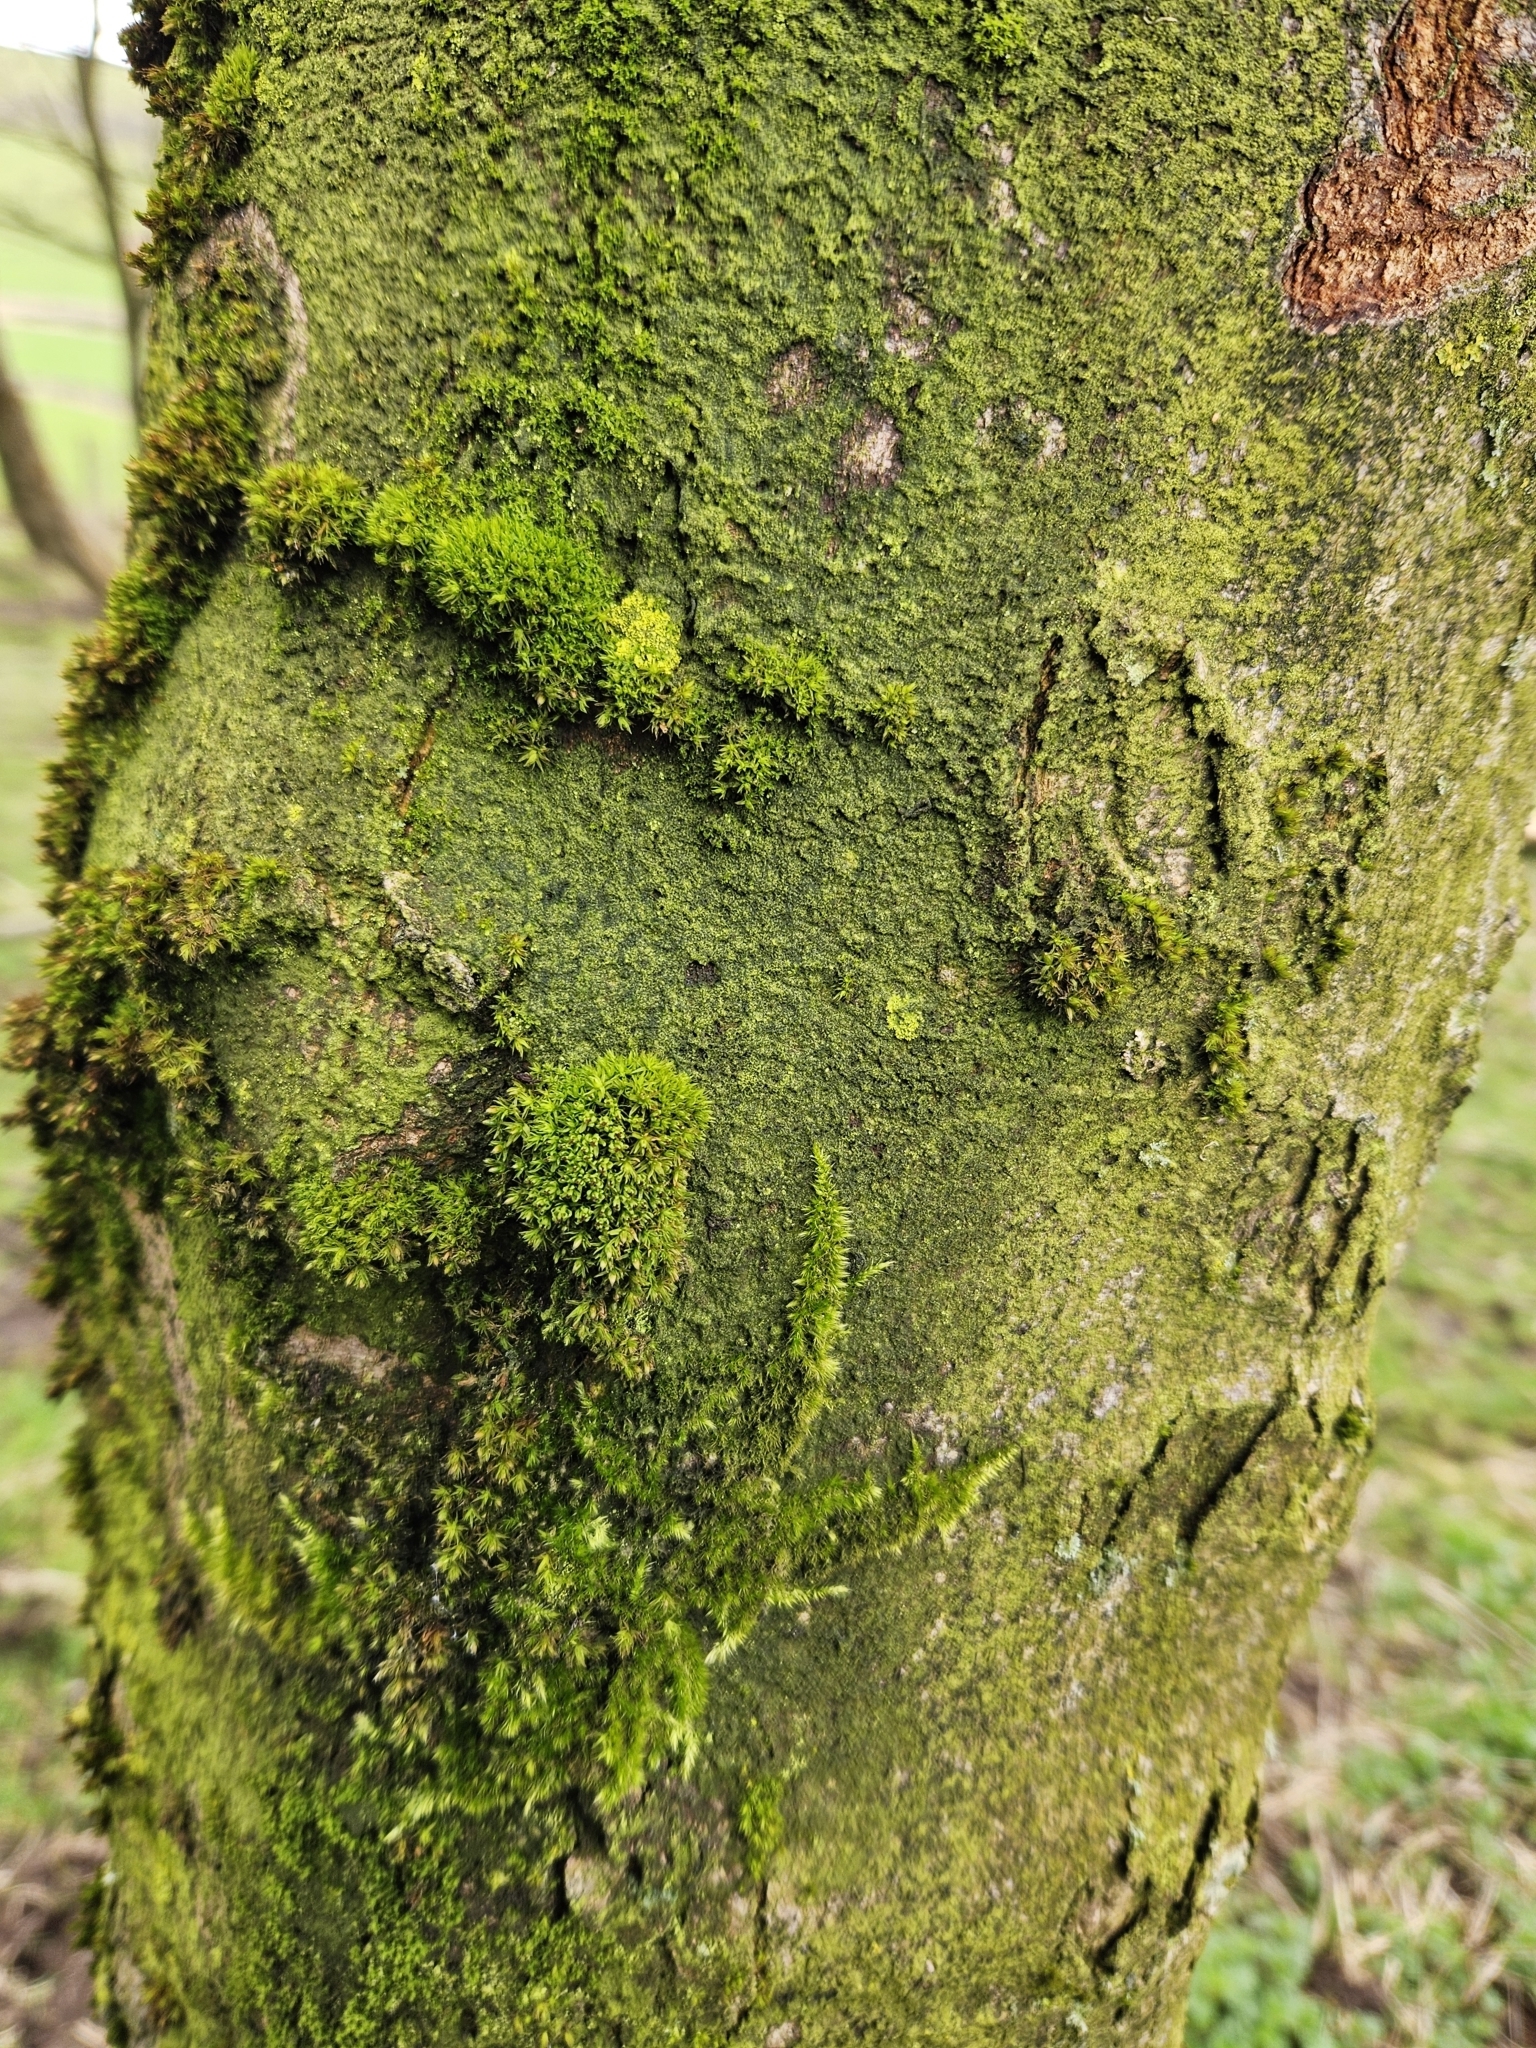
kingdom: Plantae
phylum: Bryophyta
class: Bryopsida
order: Orthotrichales
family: Orthotrichaceae
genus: Plenogemma
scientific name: Plenogemma phyllantha
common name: Frizzled pincushion
